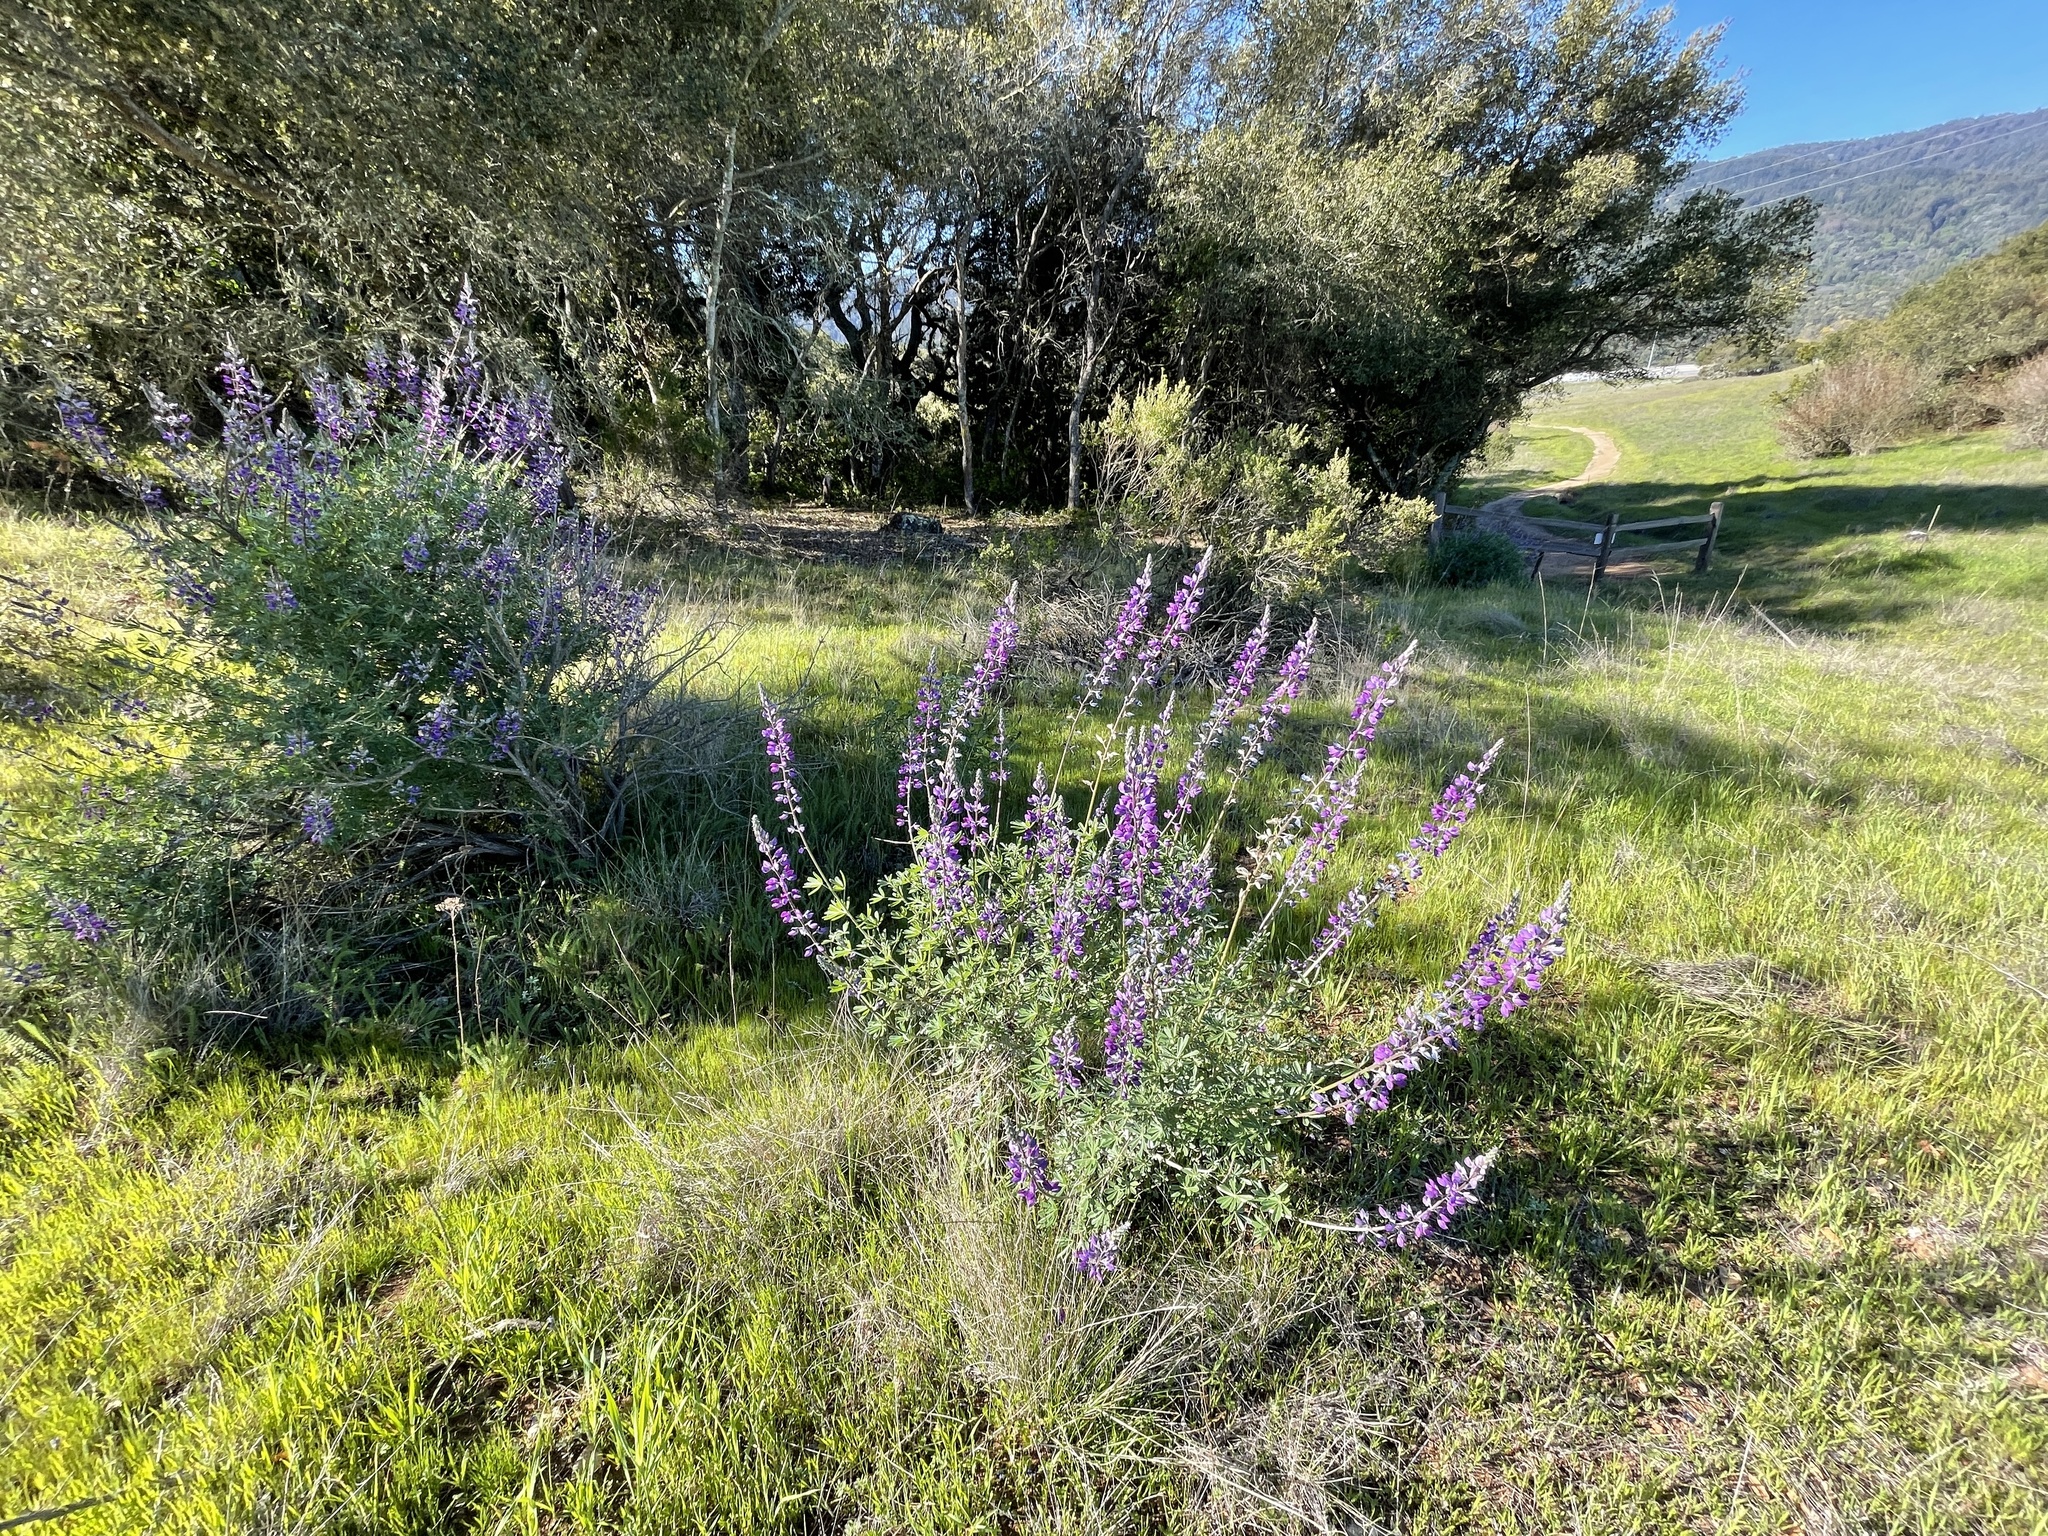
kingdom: Plantae
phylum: Tracheophyta
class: Magnoliopsida
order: Fabales
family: Fabaceae
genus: Lupinus
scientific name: Lupinus albifrons
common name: Foothill lupine
